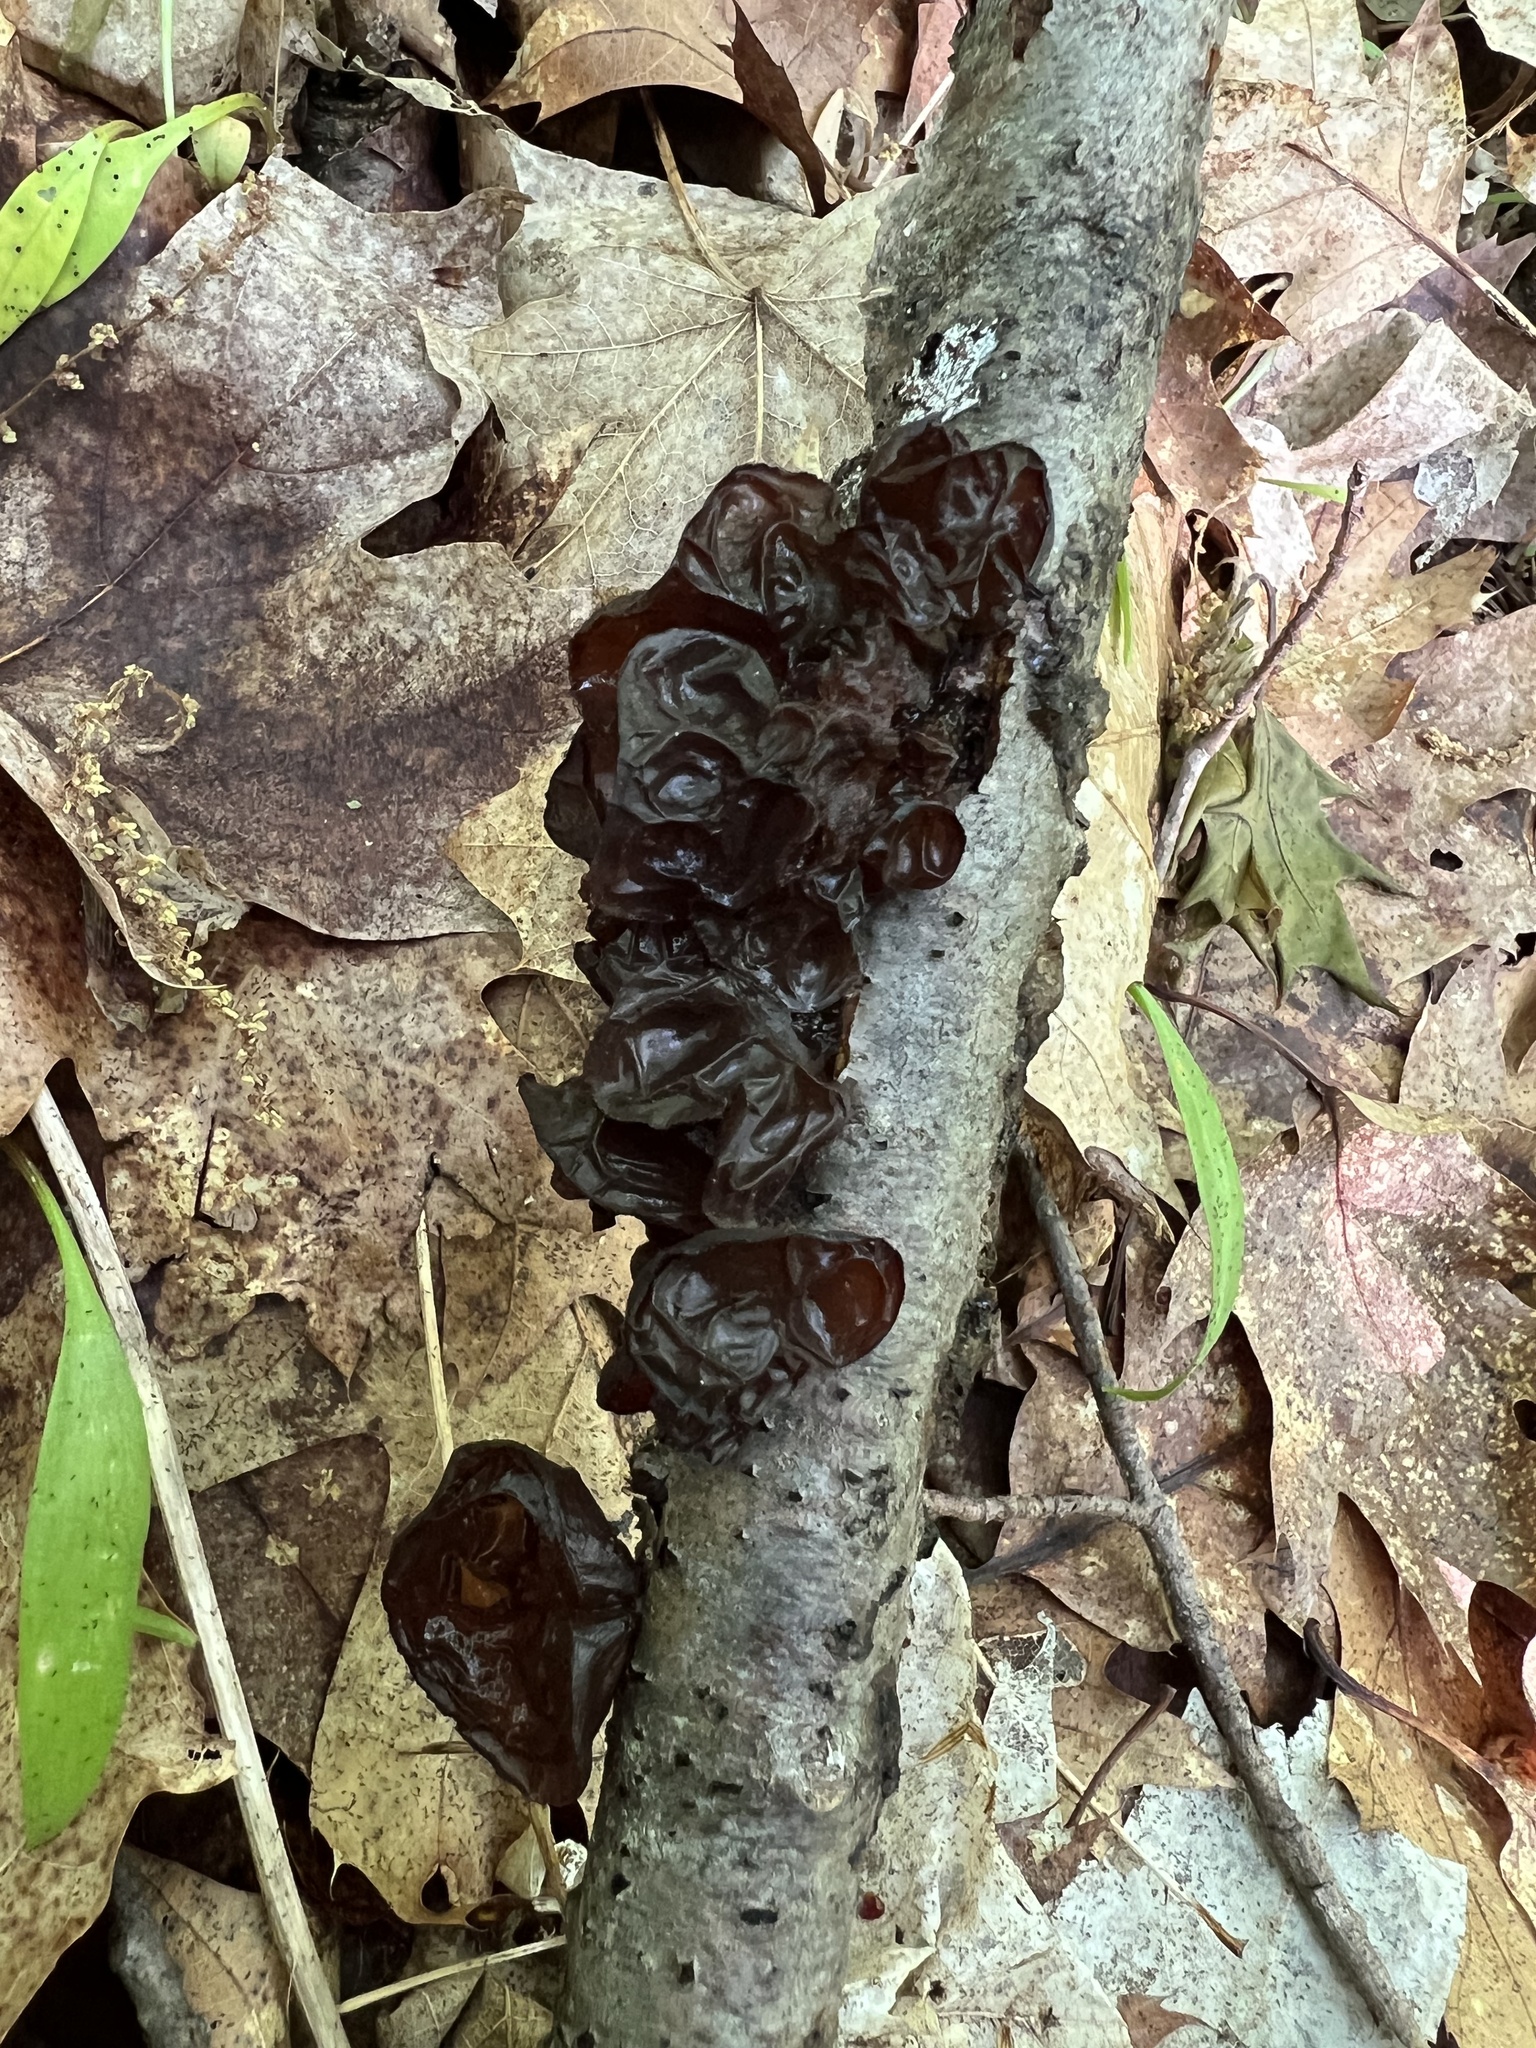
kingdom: Fungi
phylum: Basidiomycota
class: Agaricomycetes
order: Auriculariales
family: Auriculariaceae
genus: Exidia
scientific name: Exidia
